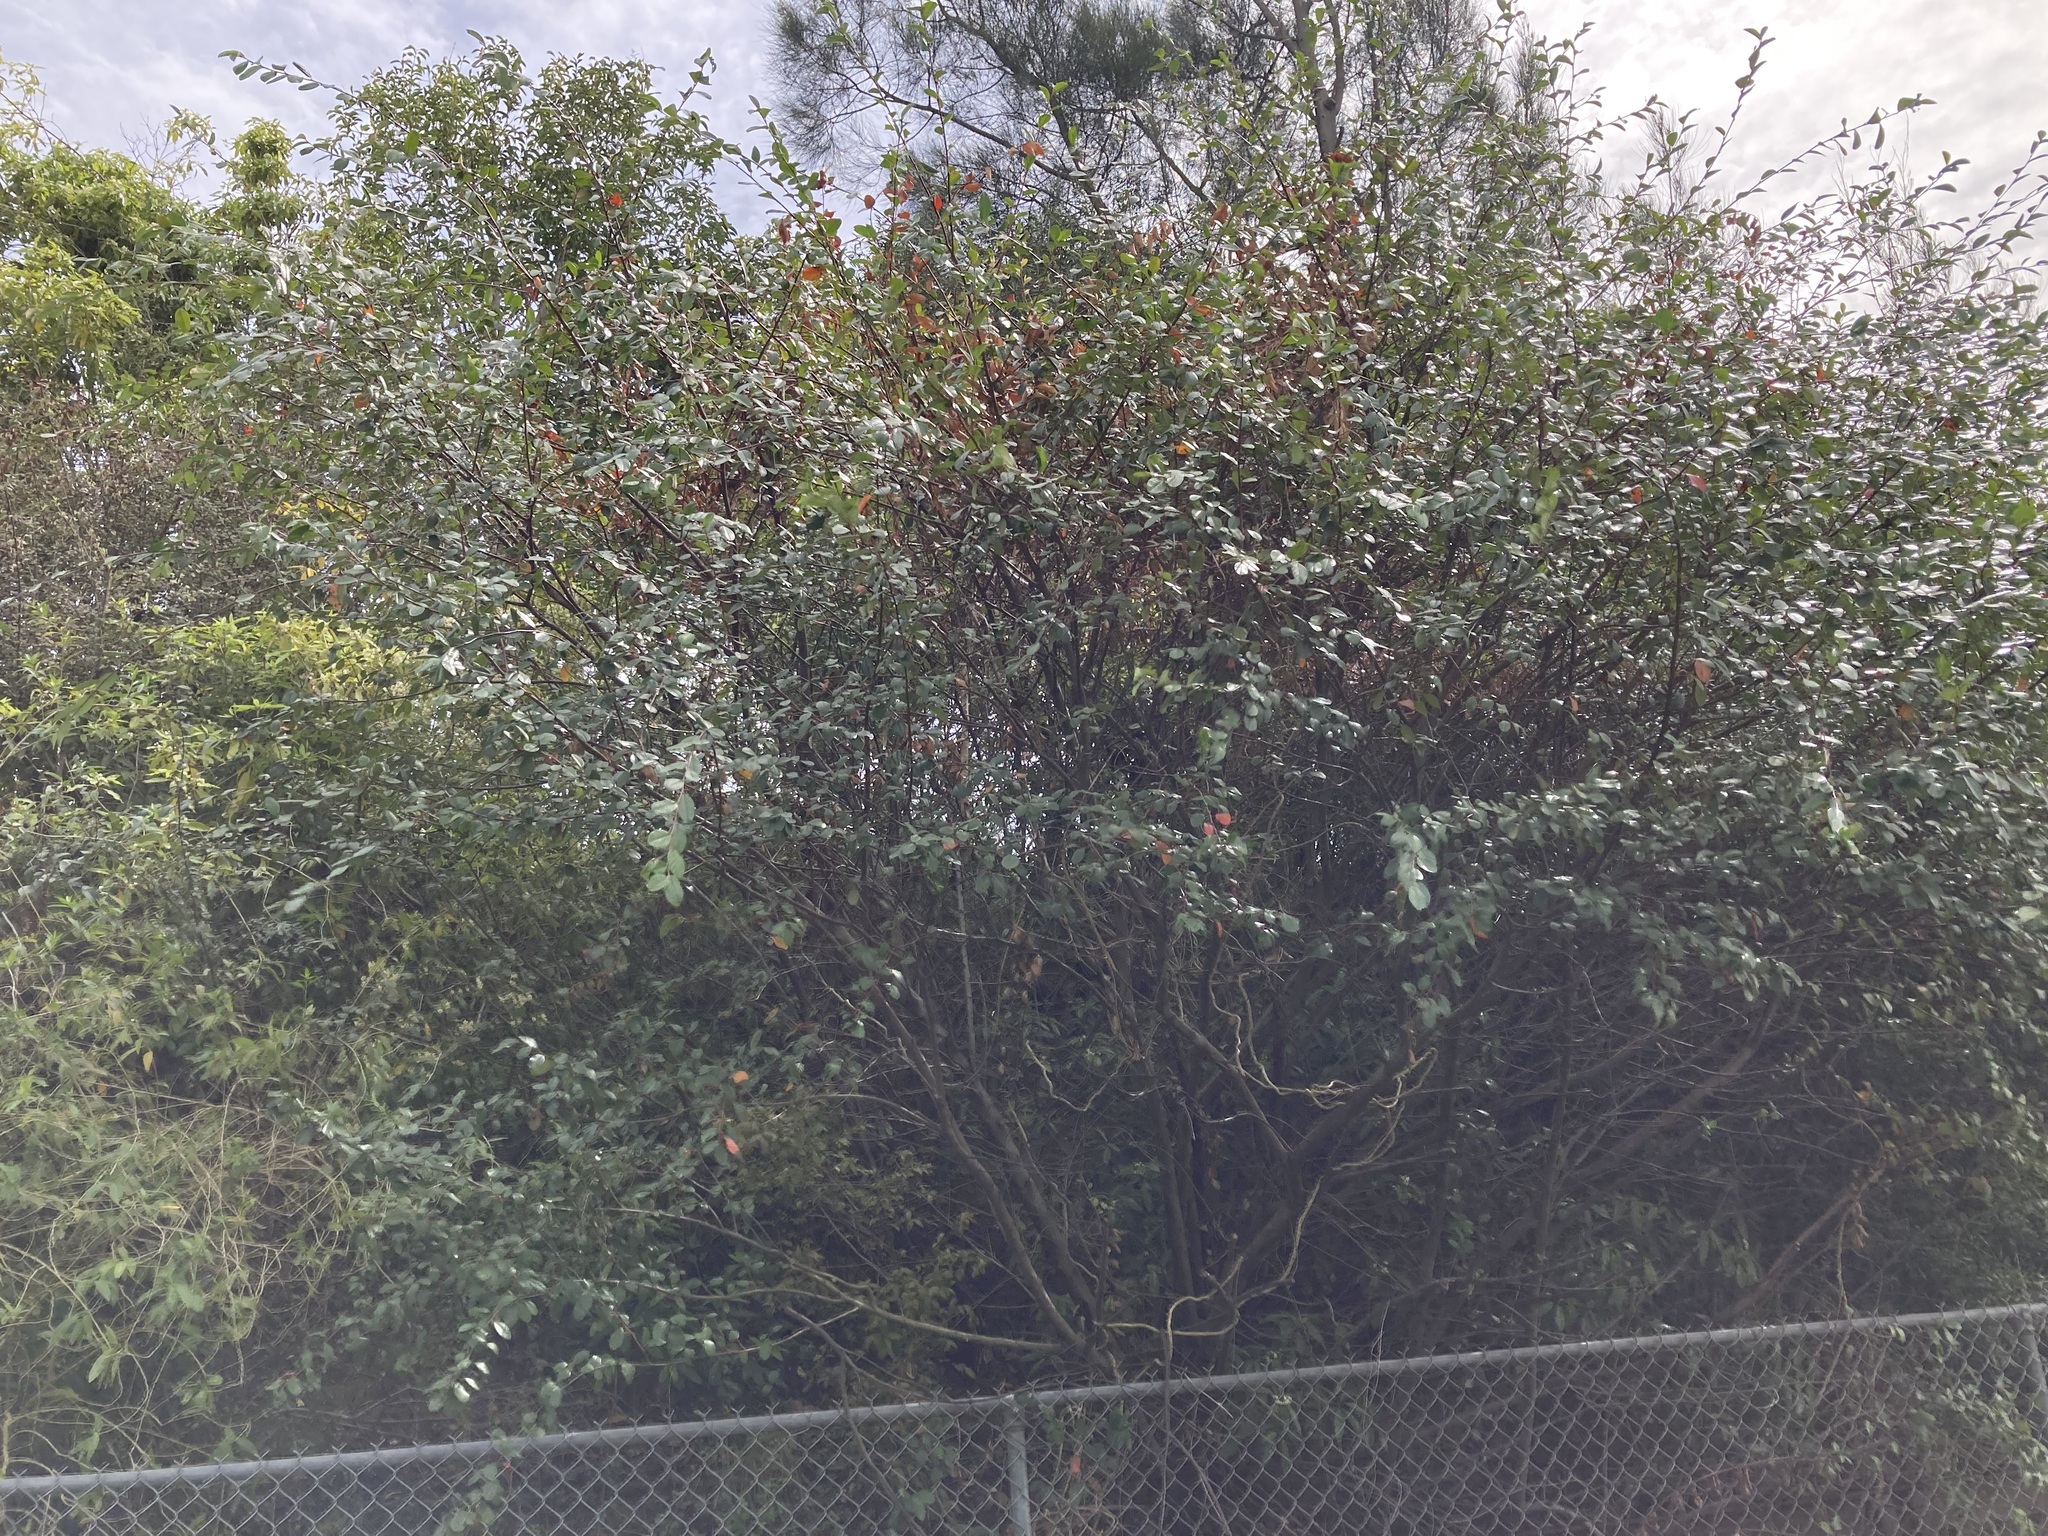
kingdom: Plantae
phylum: Tracheophyta
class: Magnoliopsida
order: Rosales
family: Rosaceae
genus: Cotoneaster
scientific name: Cotoneaster glaucophyllus
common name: Glaucous cotoneaster
